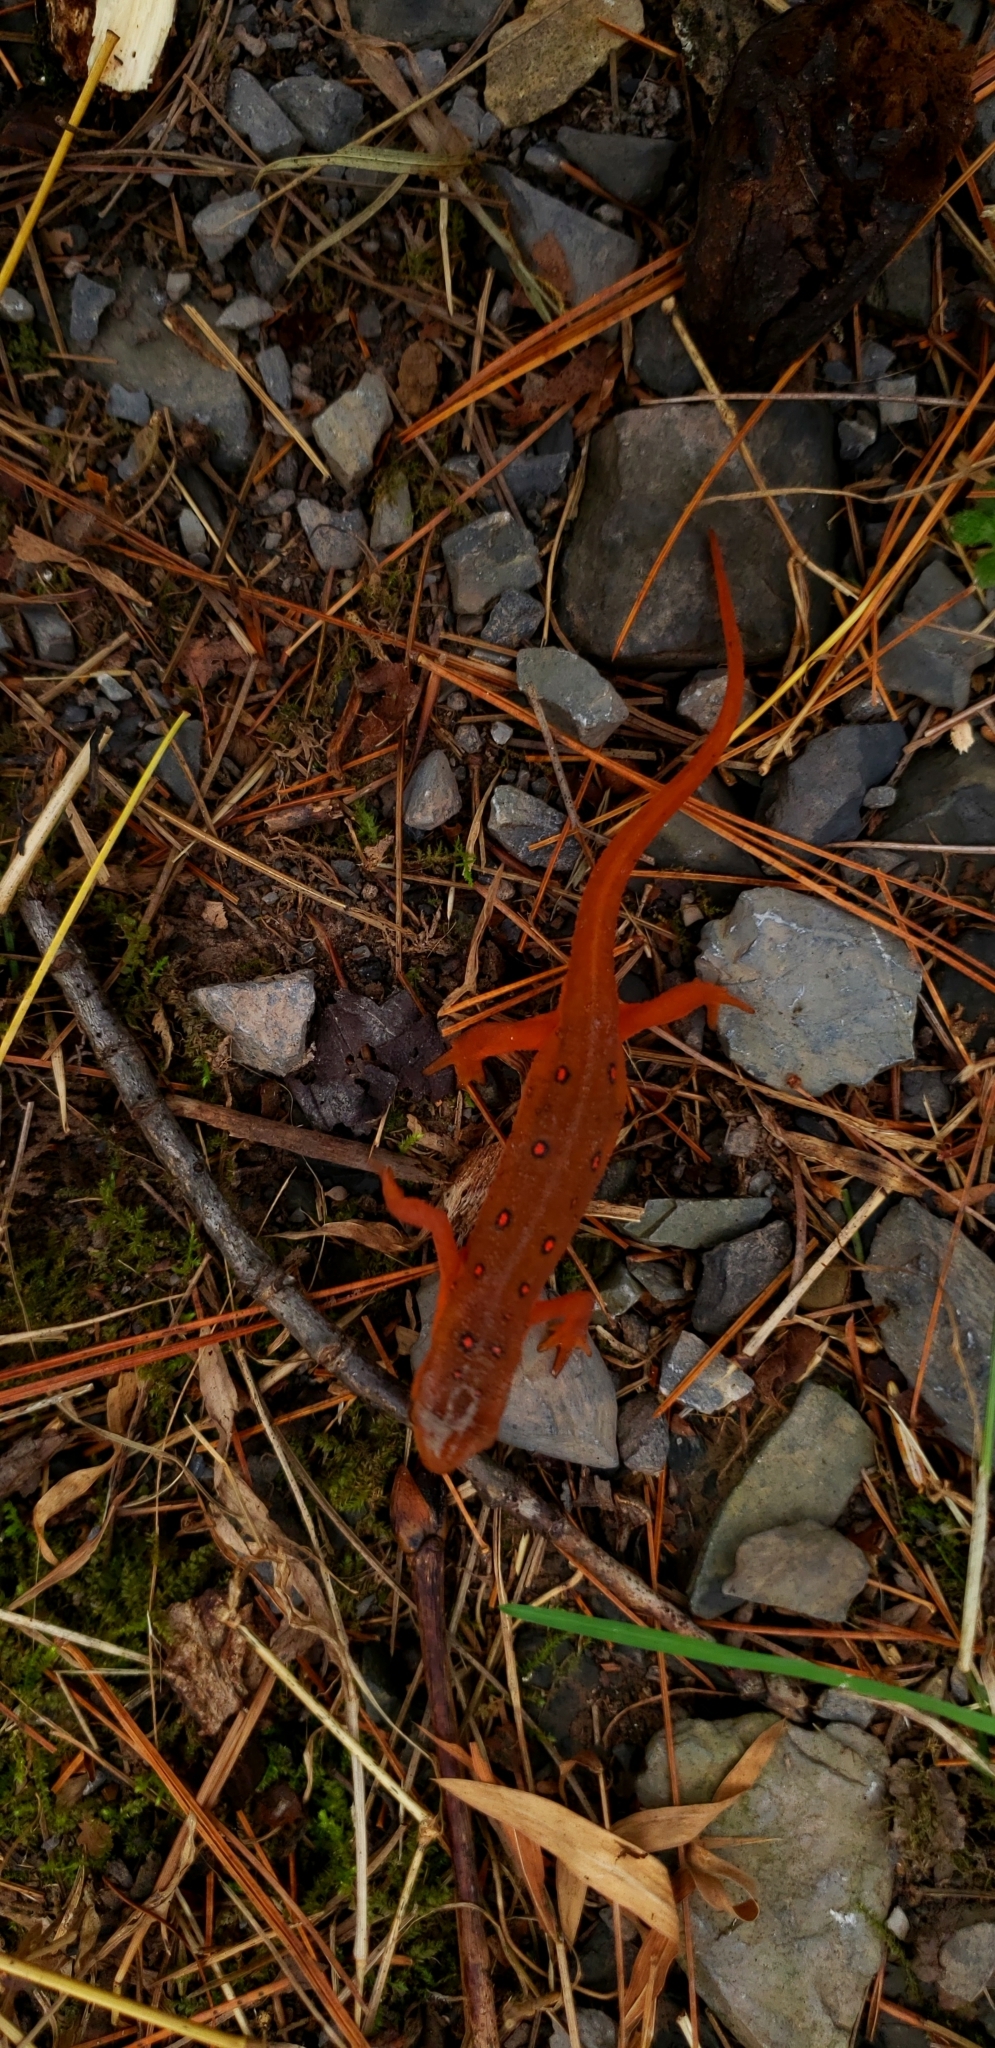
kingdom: Animalia
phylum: Chordata
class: Amphibia
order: Caudata
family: Salamandridae
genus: Notophthalmus
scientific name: Notophthalmus viridescens
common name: Eastern newt
